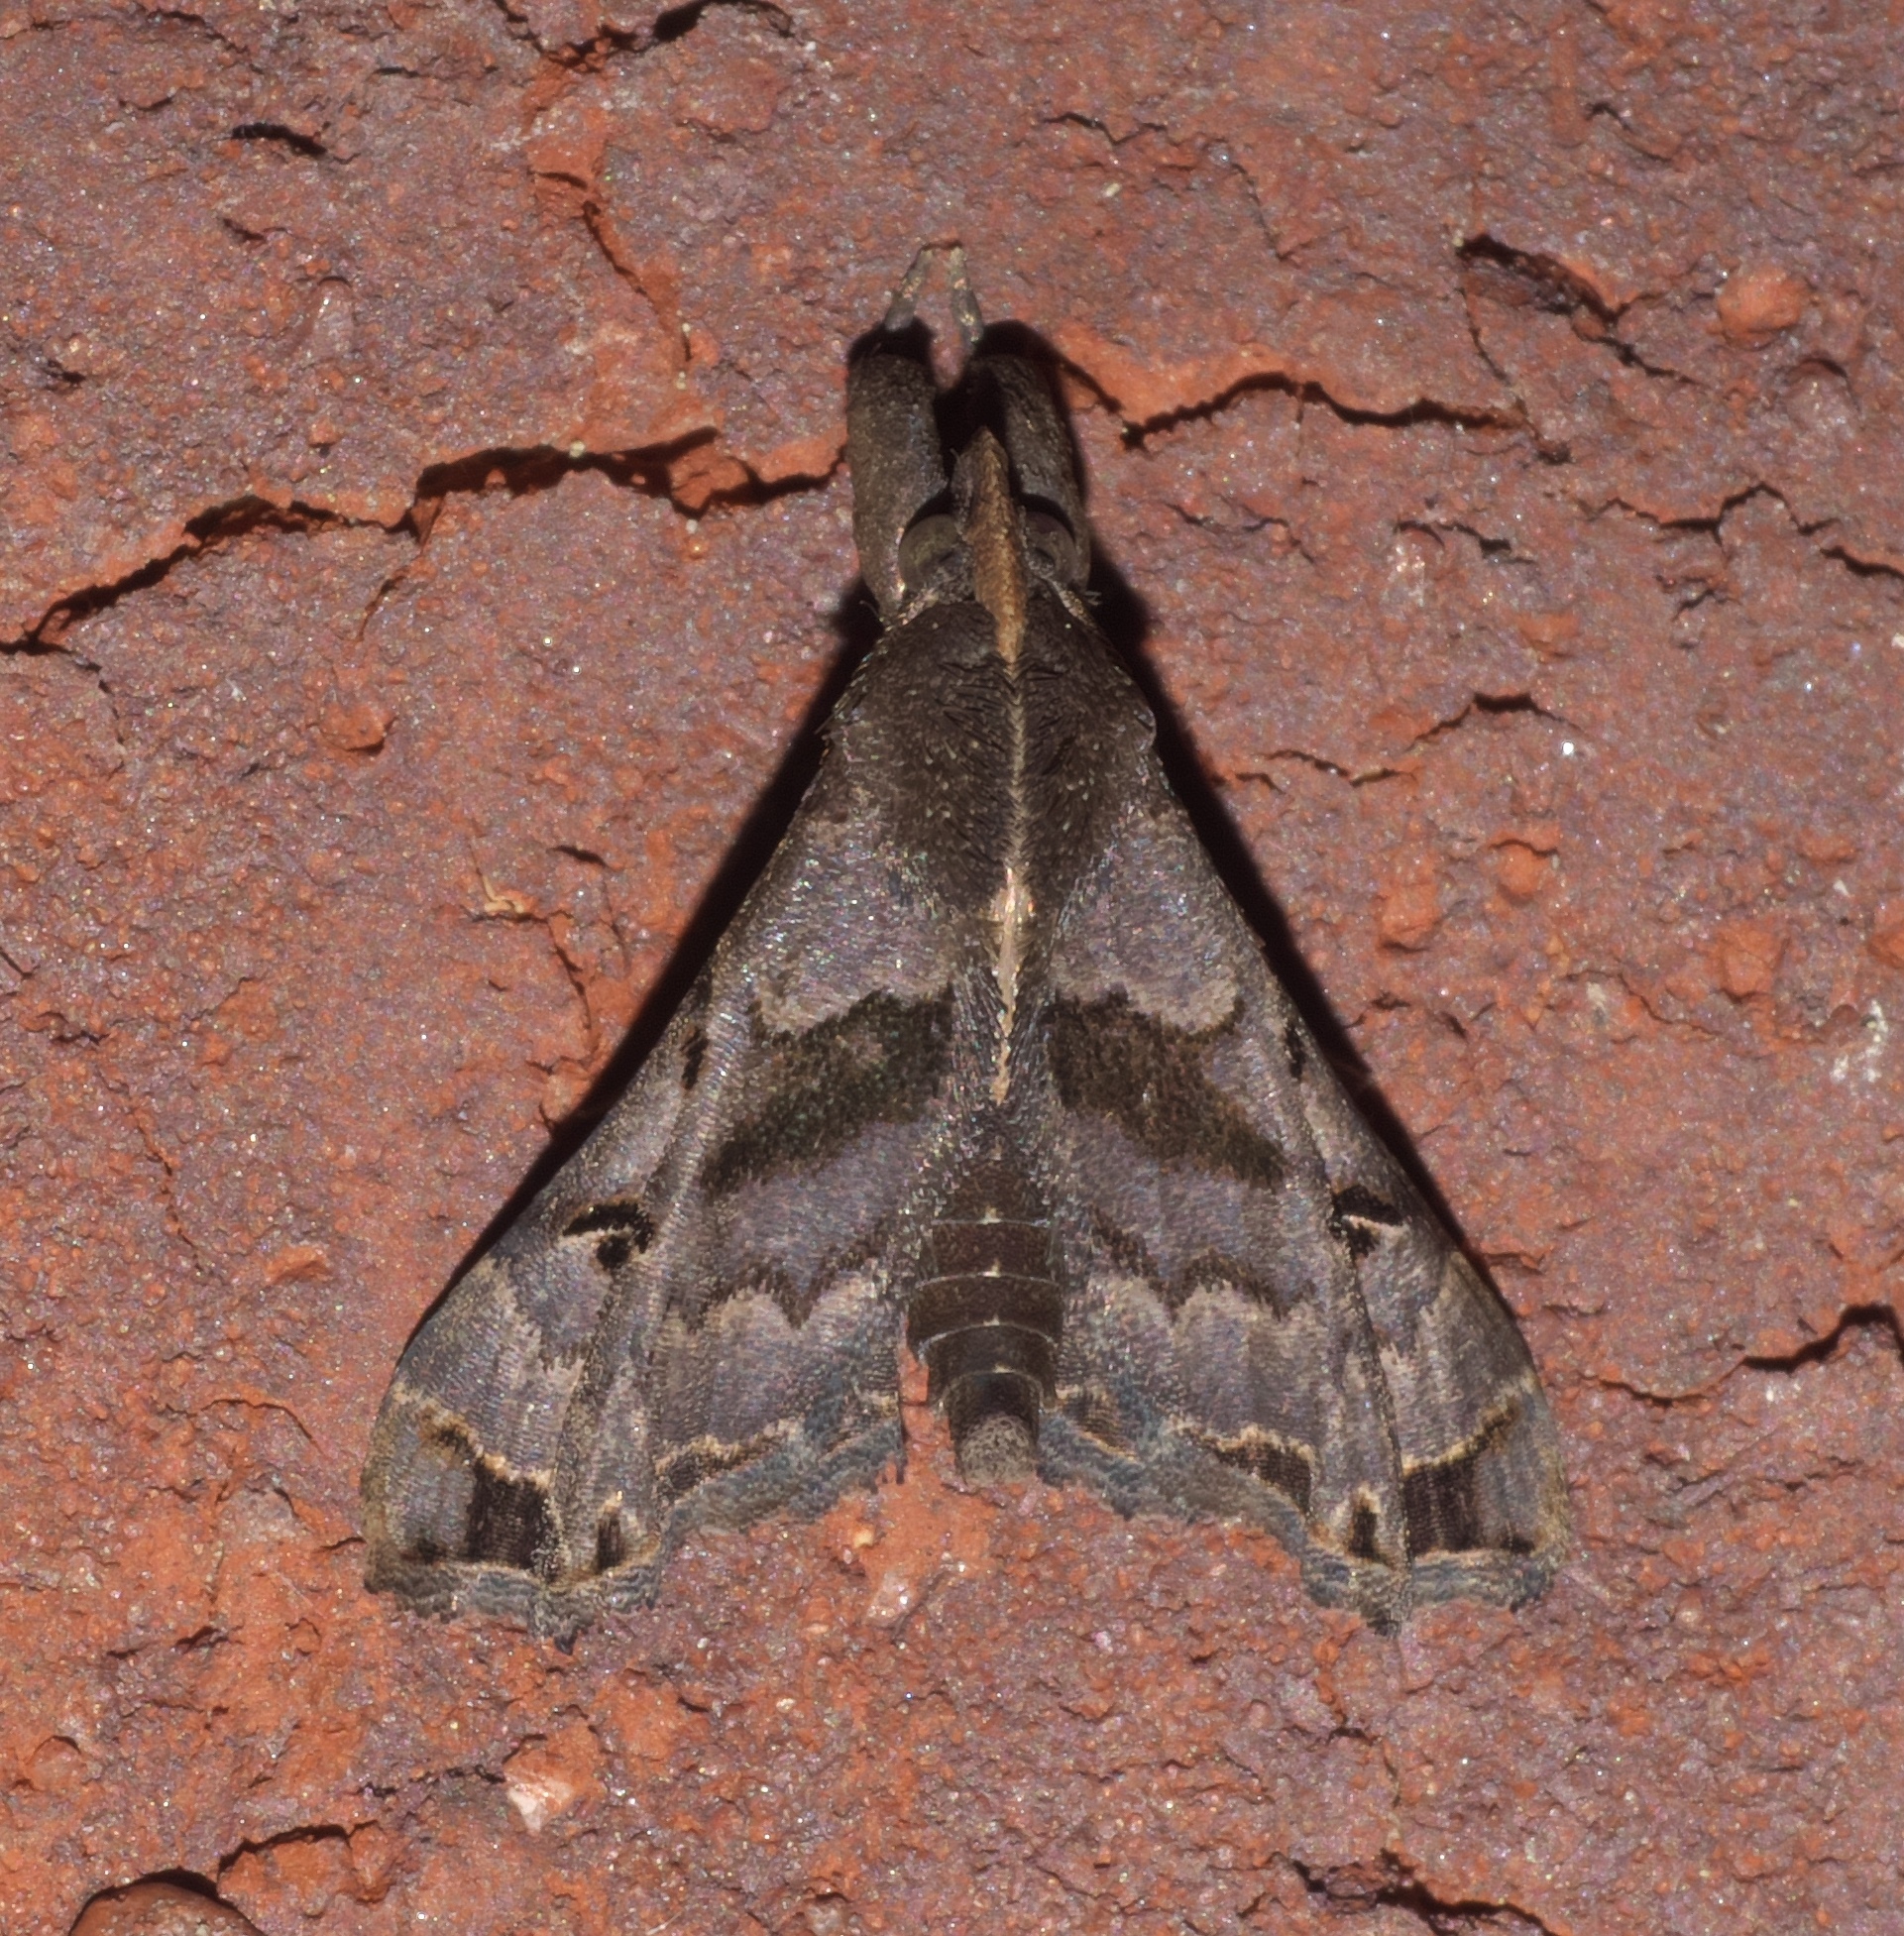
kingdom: Animalia
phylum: Arthropoda
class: Insecta
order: Lepidoptera
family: Erebidae
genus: Palthis
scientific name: Palthis asopialis
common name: Faint-spotted palthis moth
